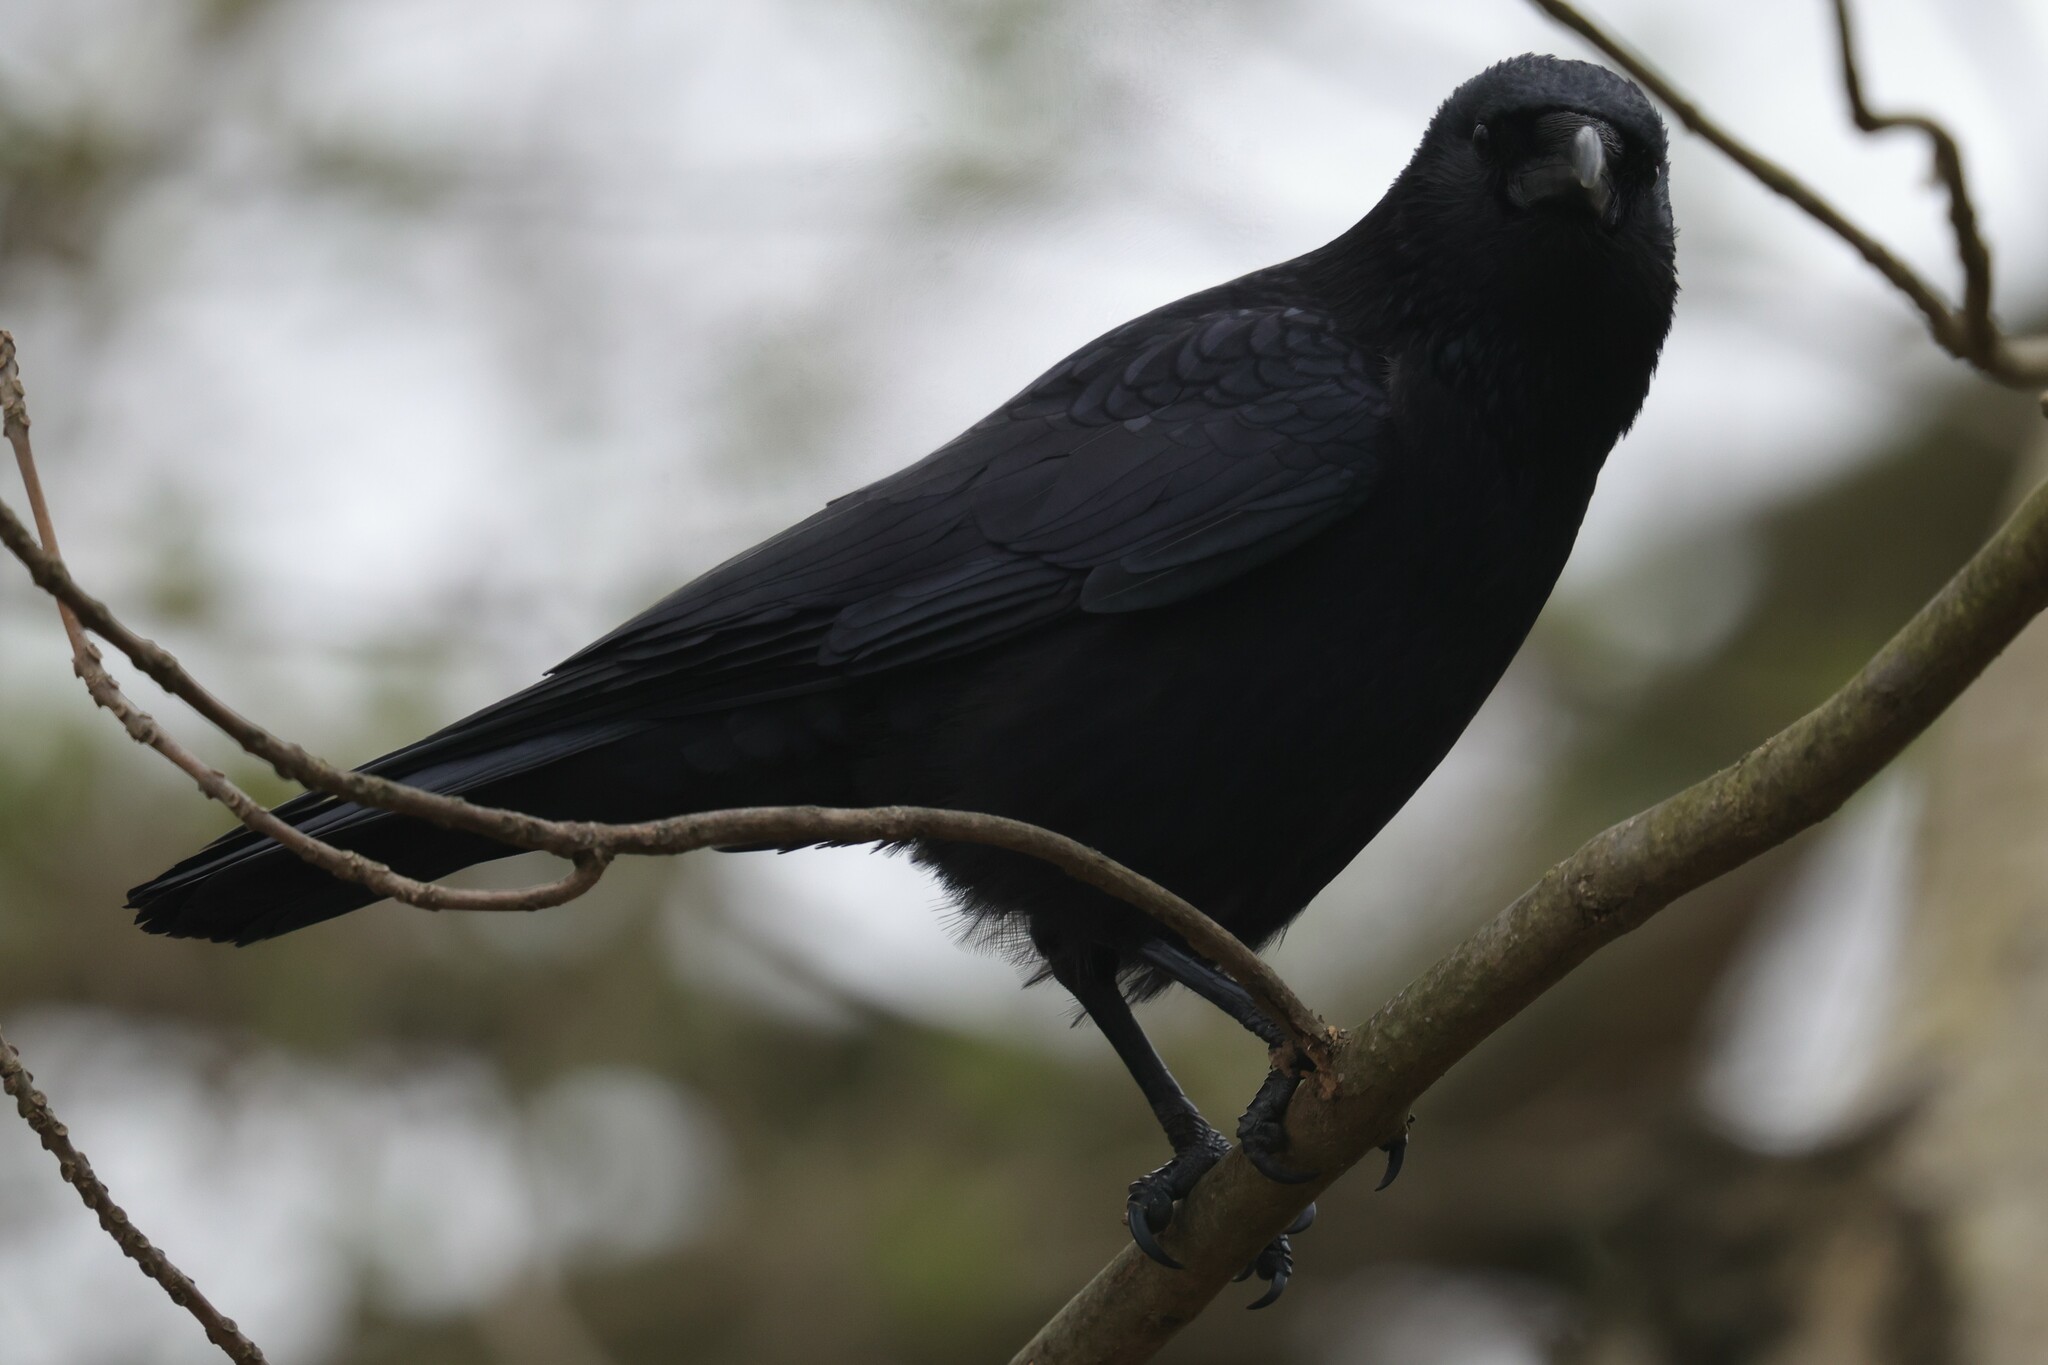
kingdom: Animalia
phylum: Chordata
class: Aves
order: Passeriformes
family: Corvidae
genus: Corvus
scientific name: Corvus corone
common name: Carrion crow
